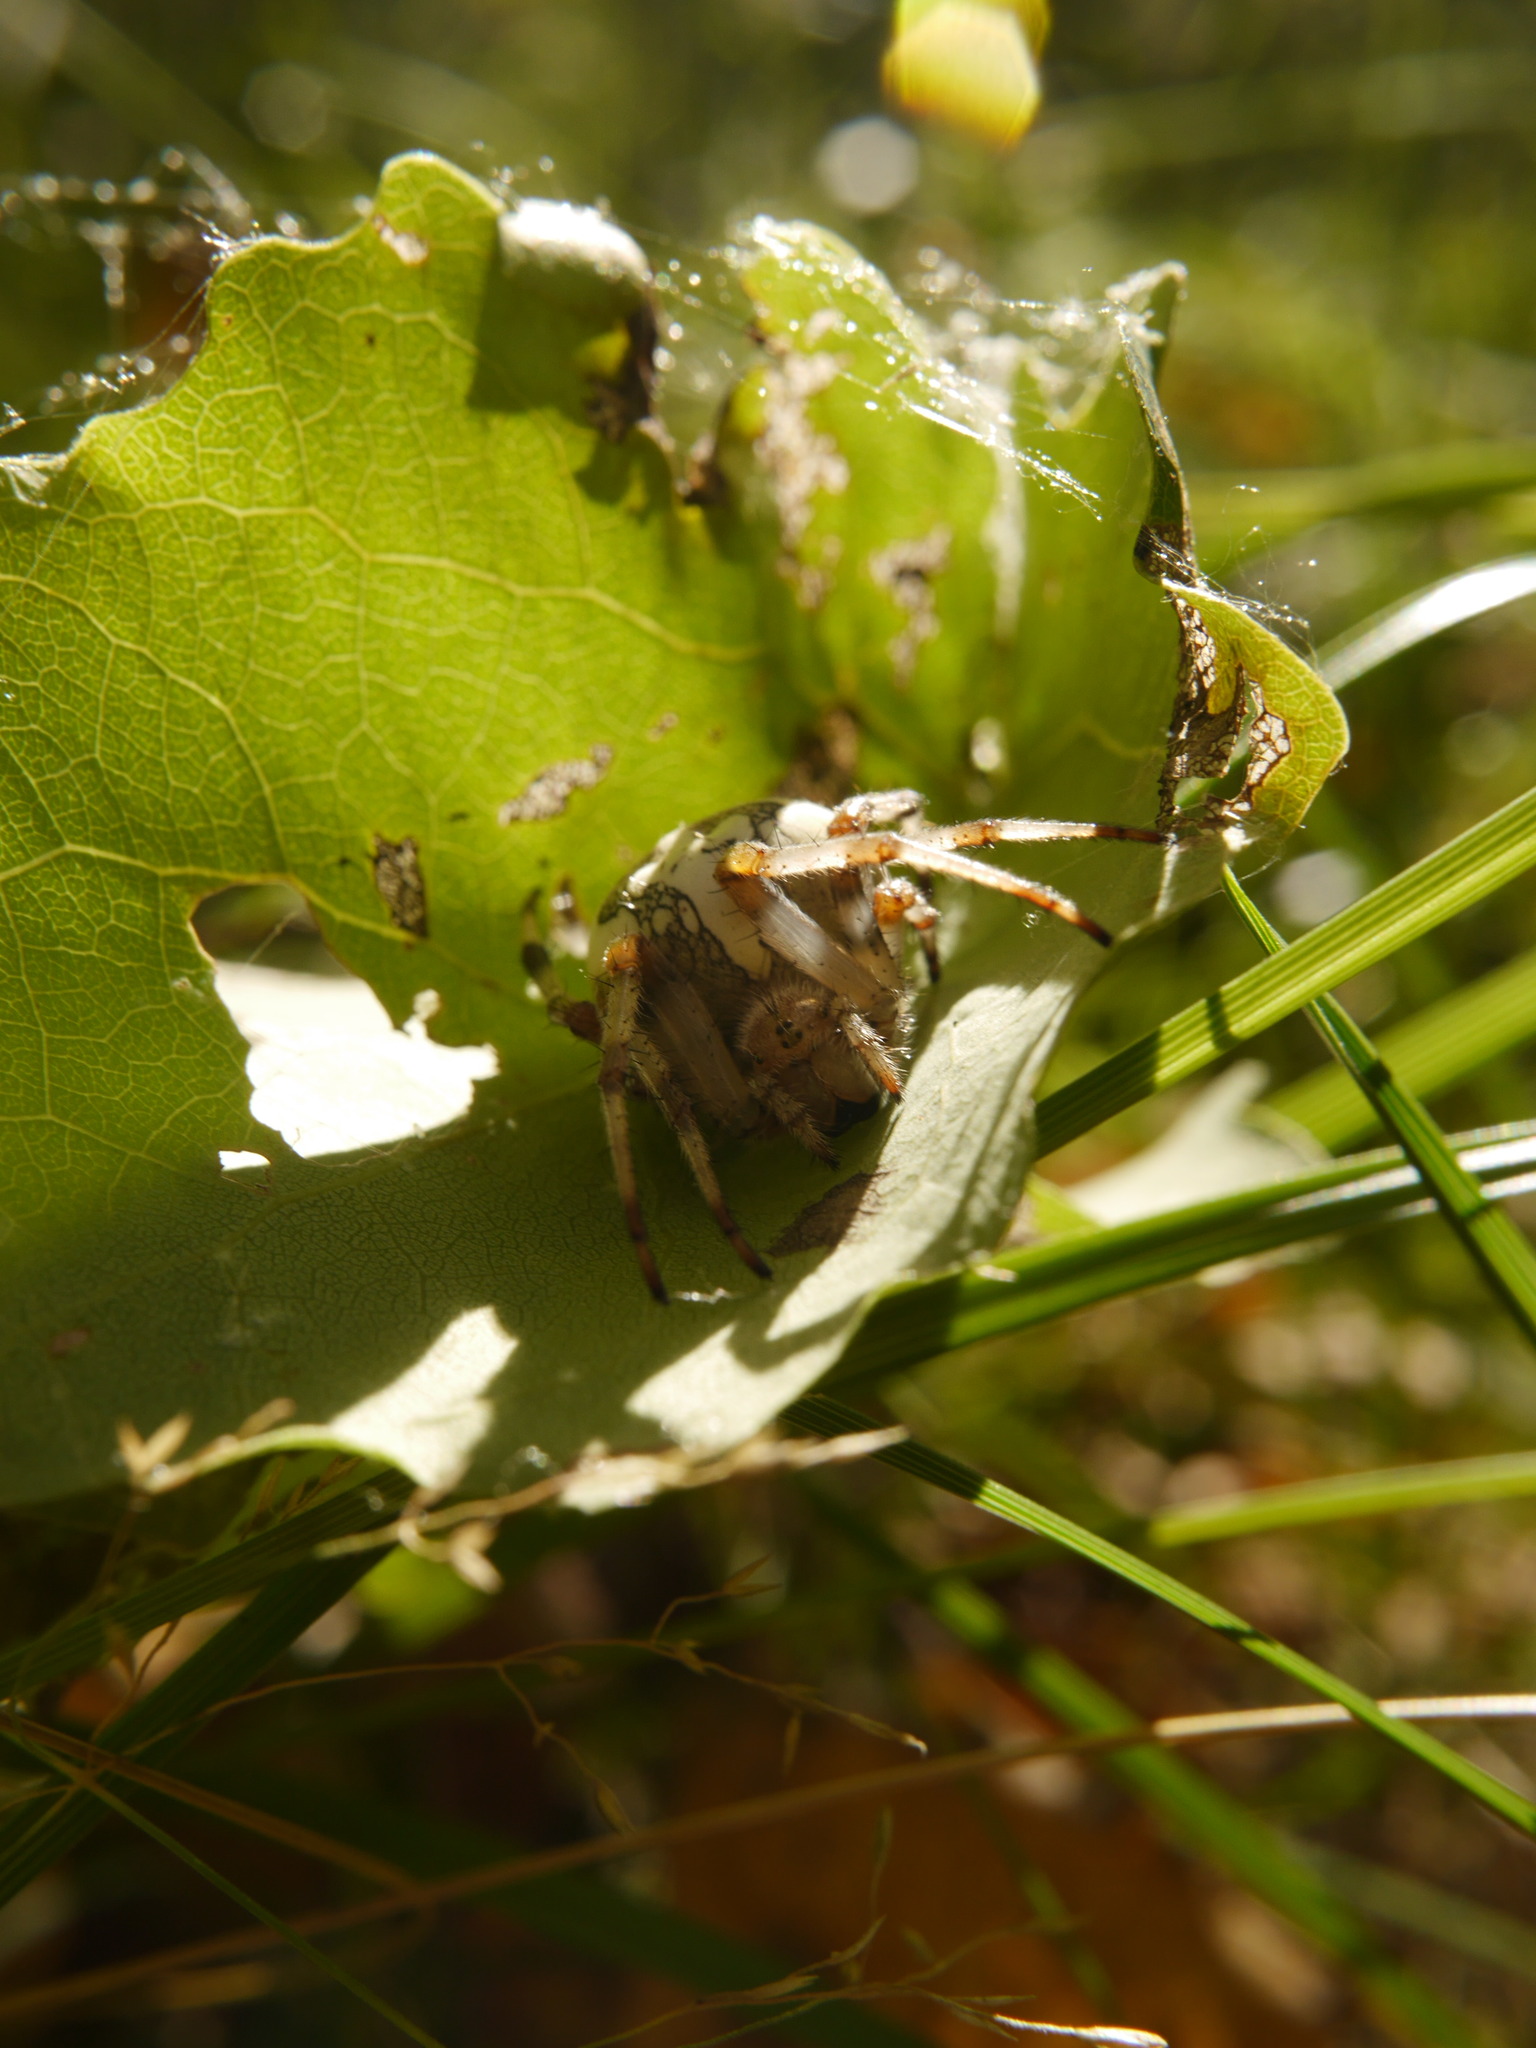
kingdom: Animalia
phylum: Arthropoda
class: Arachnida
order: Araneae
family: Araneidae
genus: Araneus
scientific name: Araneus marmoreus
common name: Marbled orbweaver
